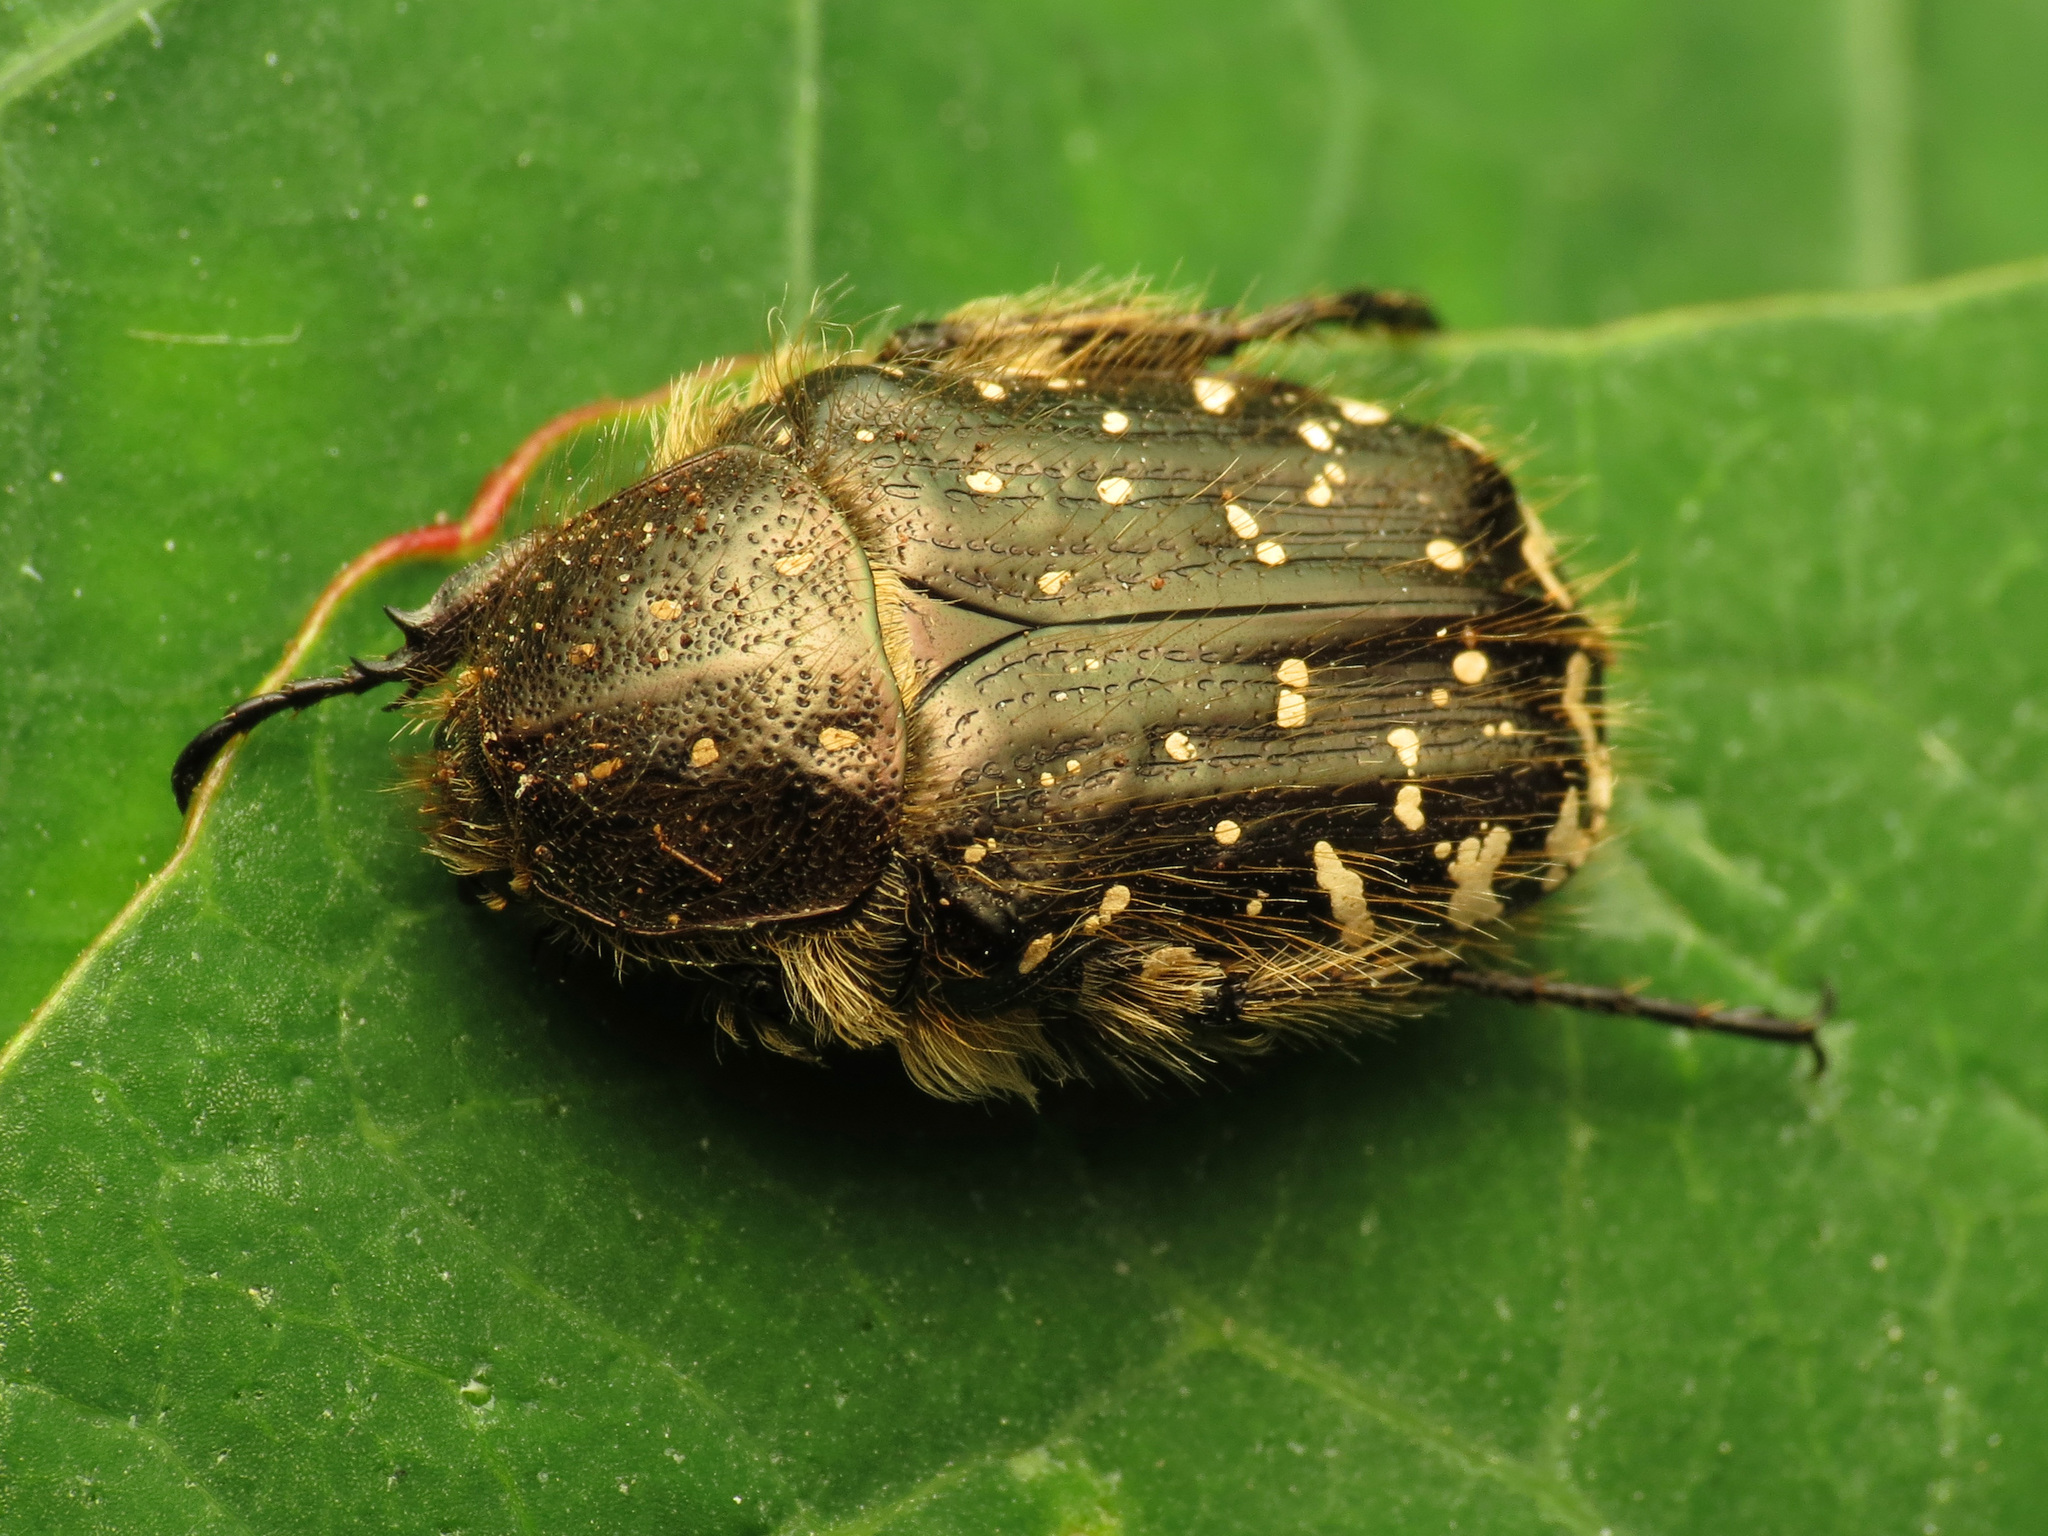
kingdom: Animalia
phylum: Arthropoda
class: Insecta
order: Coleoptera
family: Scarabaeidae
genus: Oxythyrea
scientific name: Oxythyrea funesta
